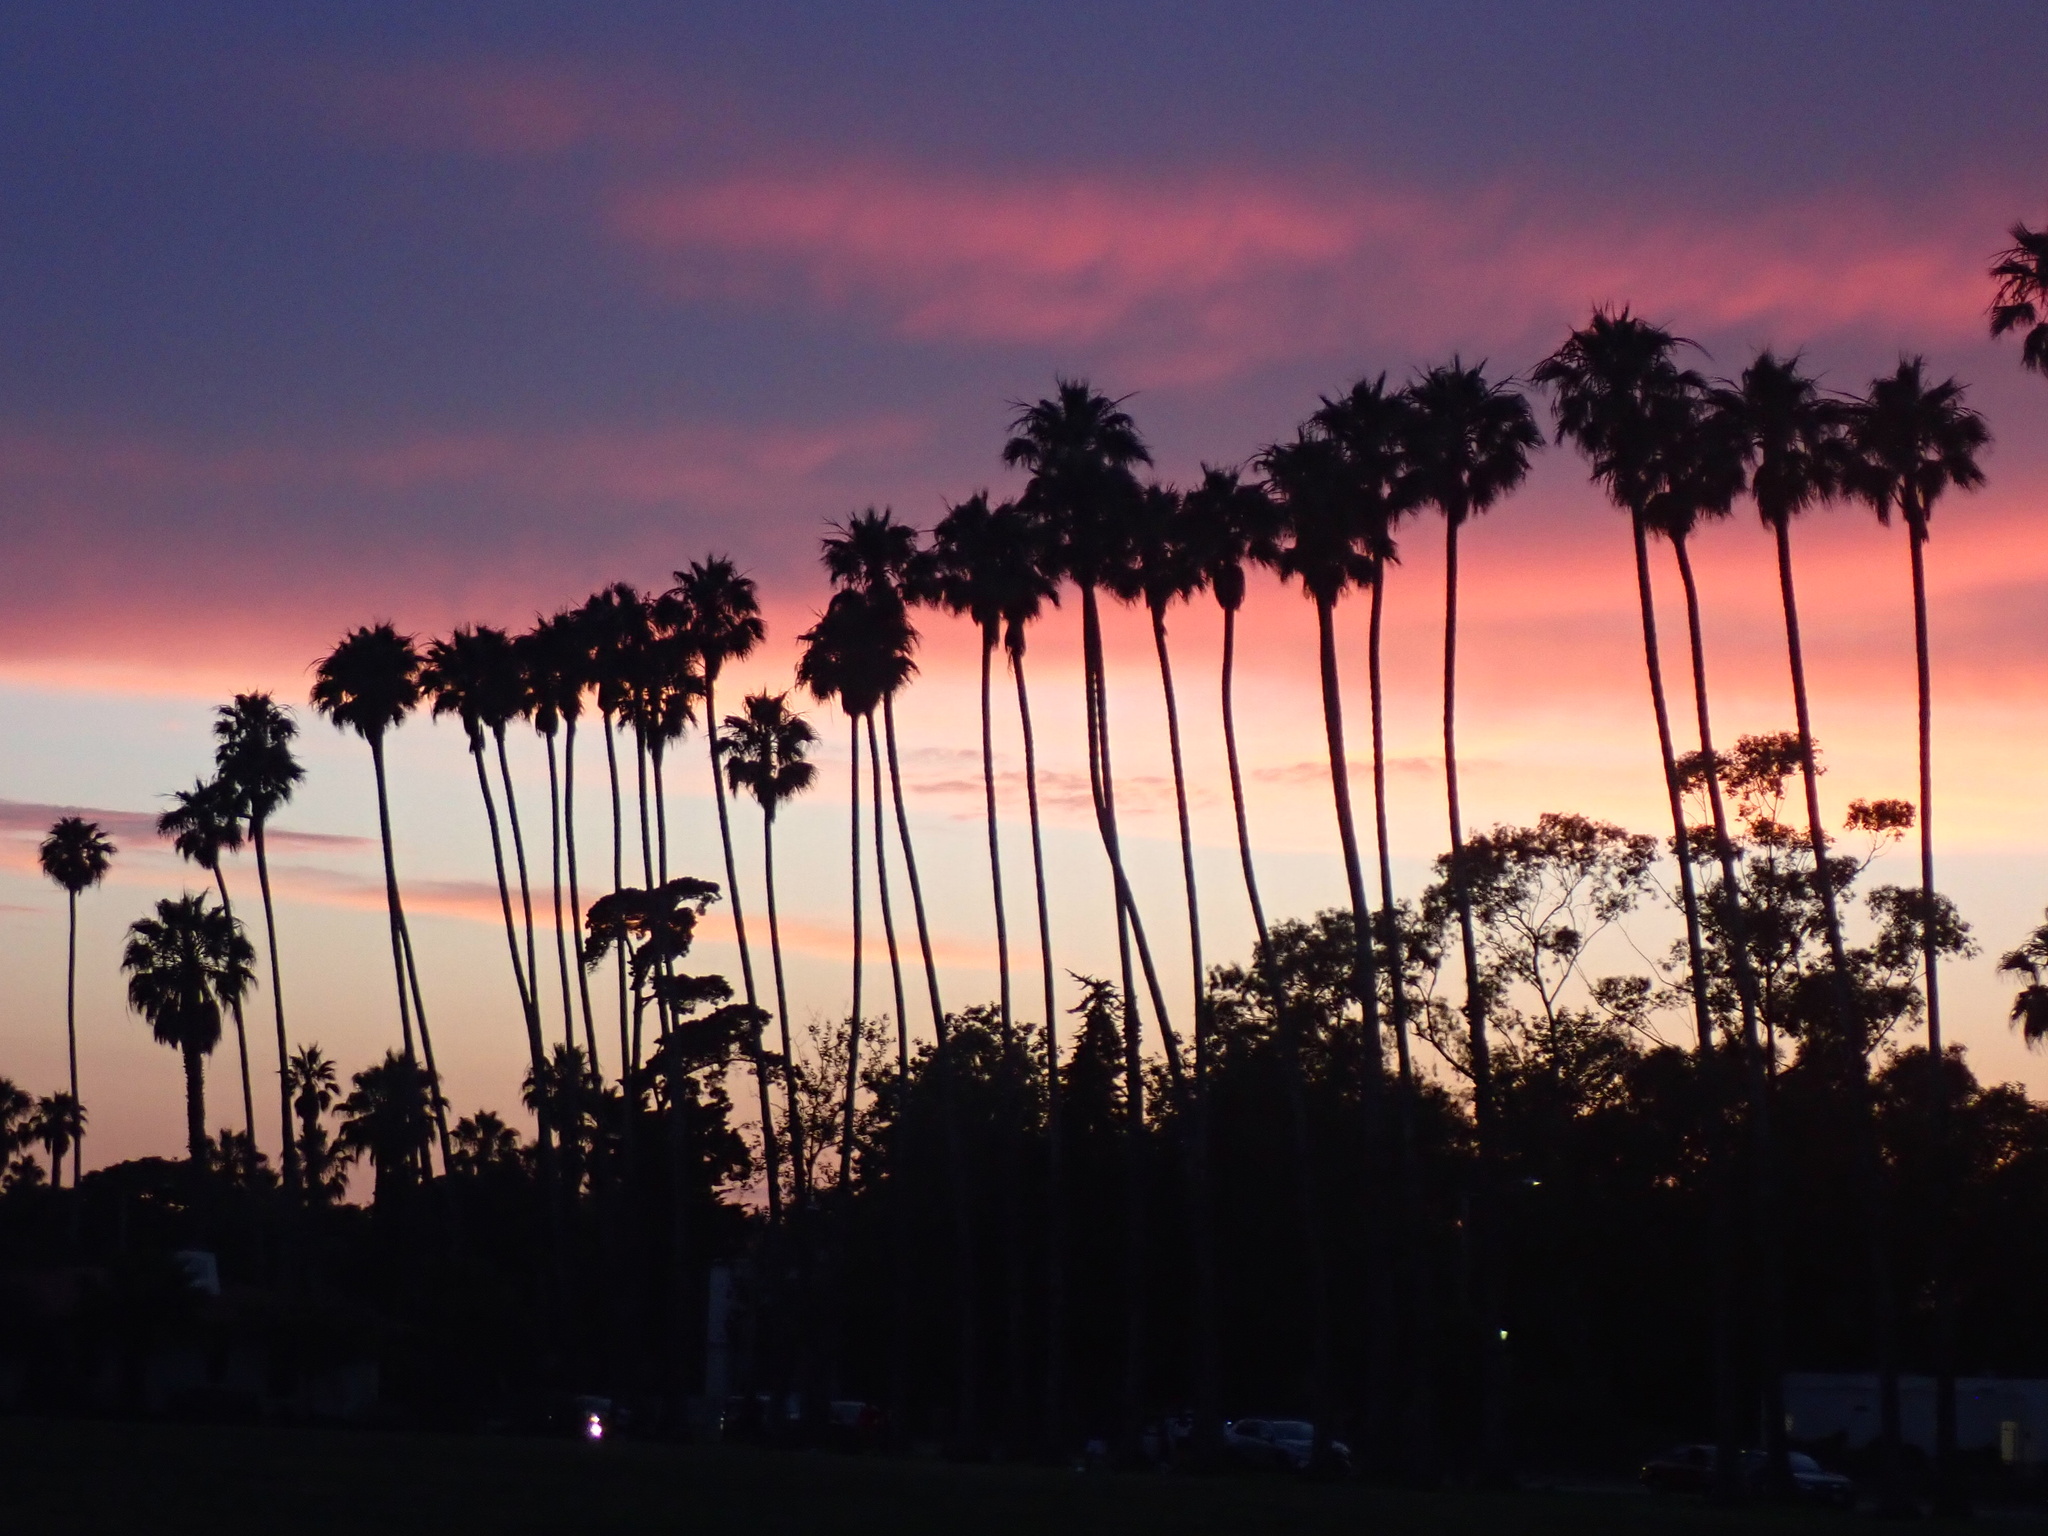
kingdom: Plantae
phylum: Tracheophyta
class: Liliopsida
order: Arecales
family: Arecaceae
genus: Washingtonia
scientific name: Washingtonia robusta
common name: Mexican fan palm
